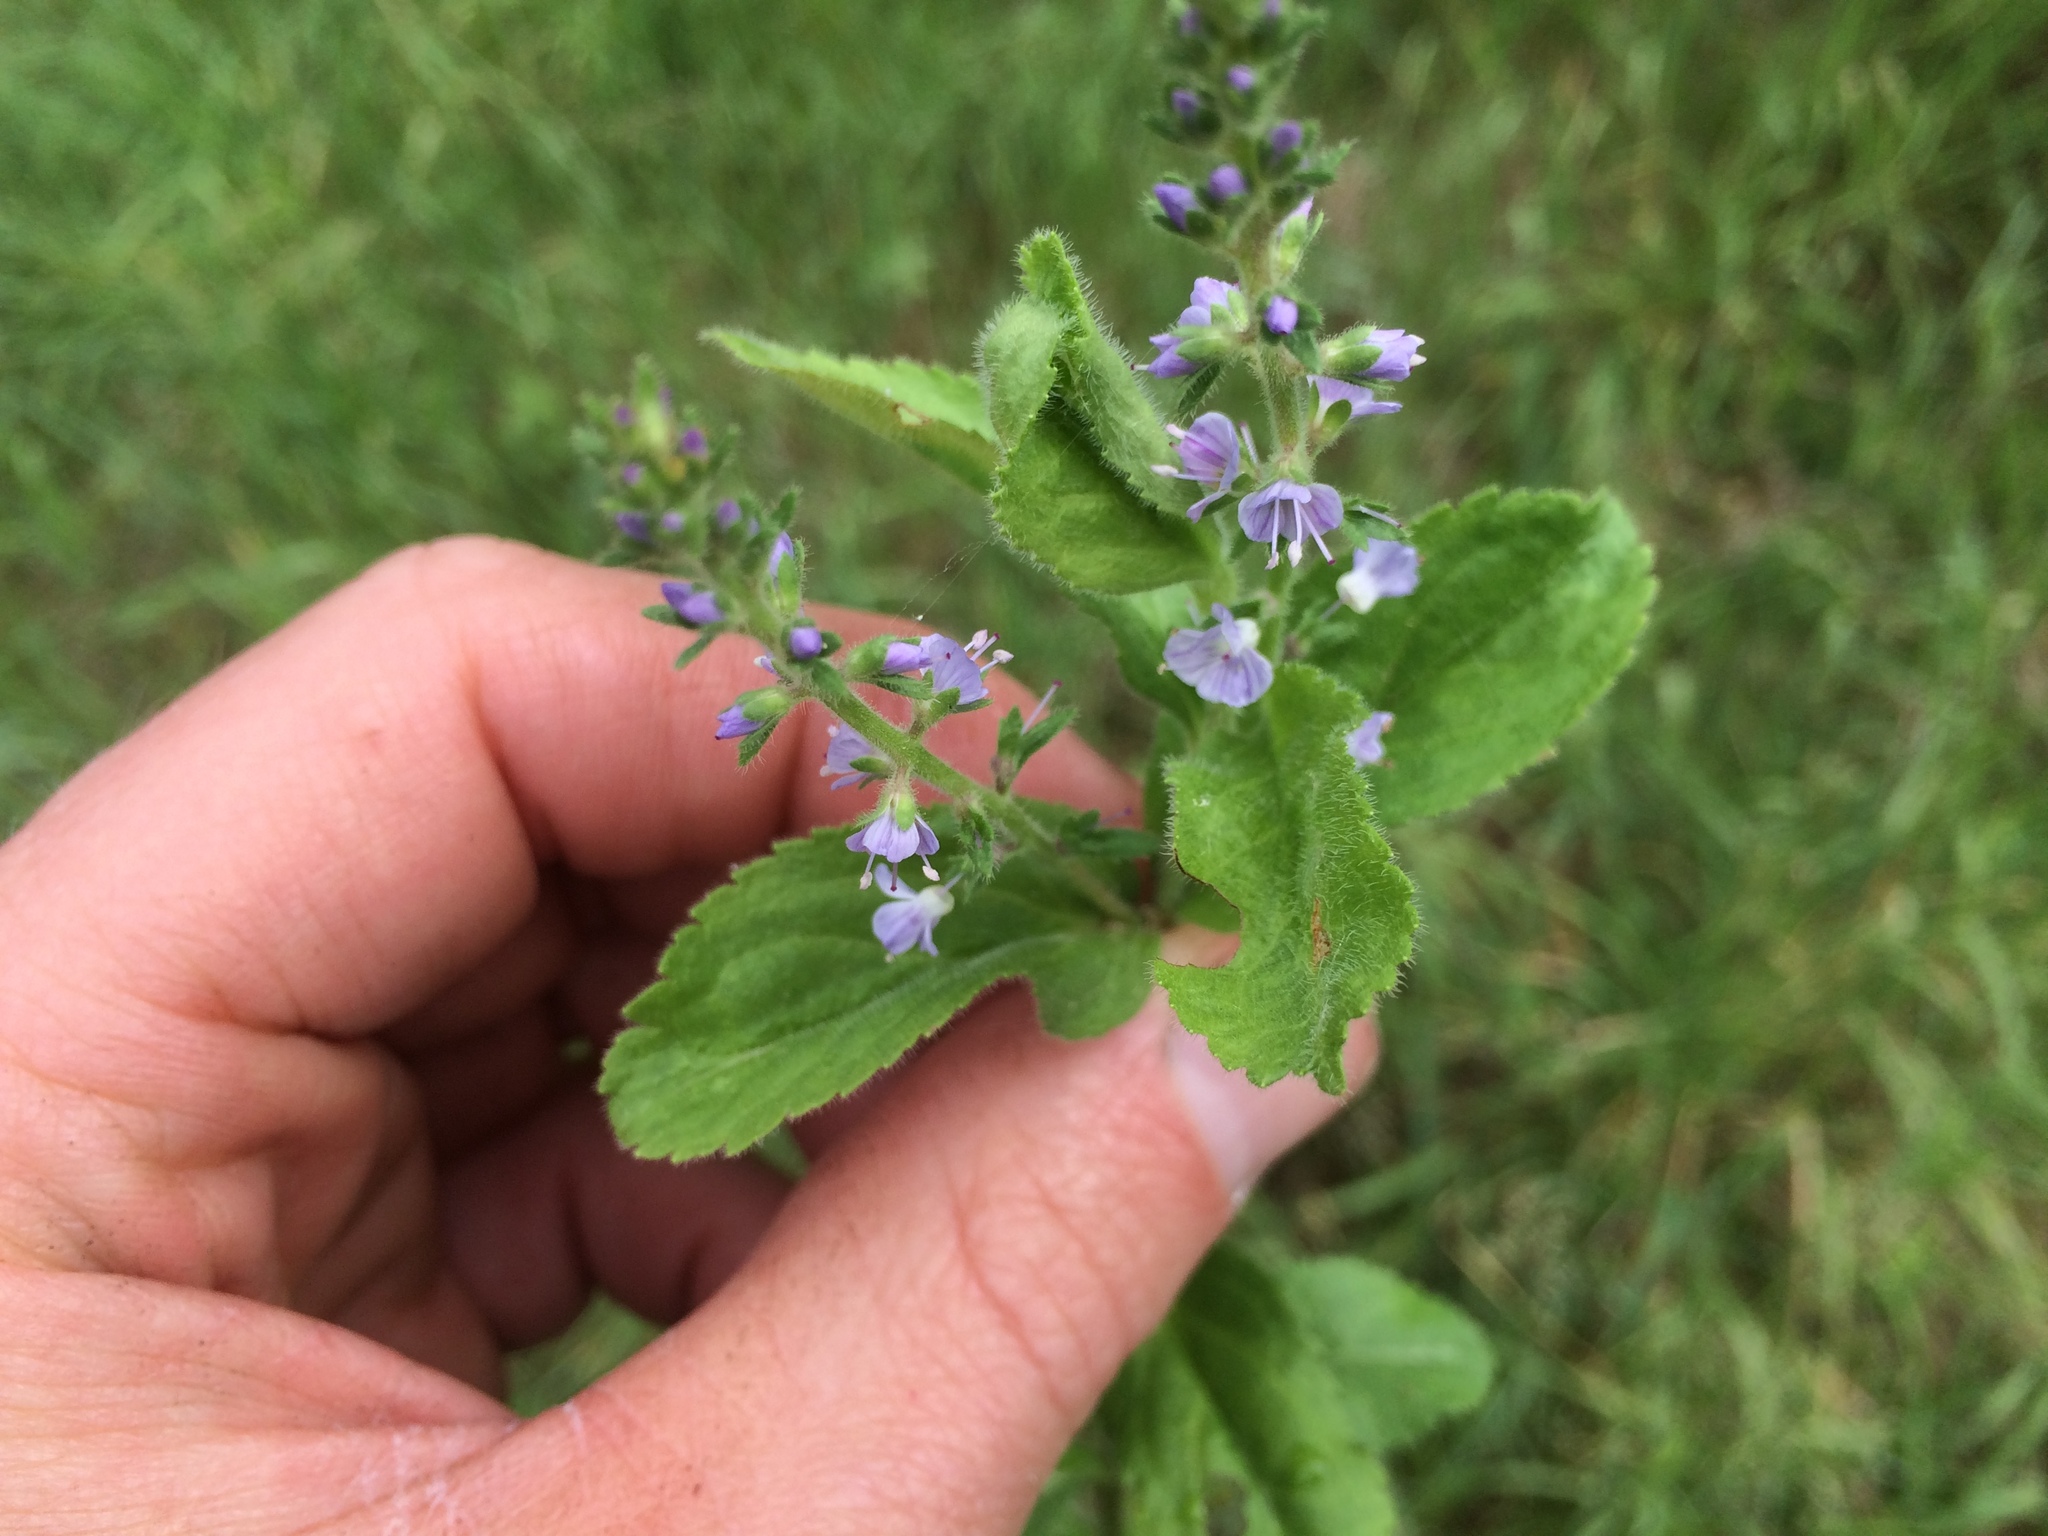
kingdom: Plantae
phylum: Tracheophyta
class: Magnoliopsida
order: Lamiales
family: Plantaginaceae
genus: Veronica
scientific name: Veronica officinalis
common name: Common speedwell
